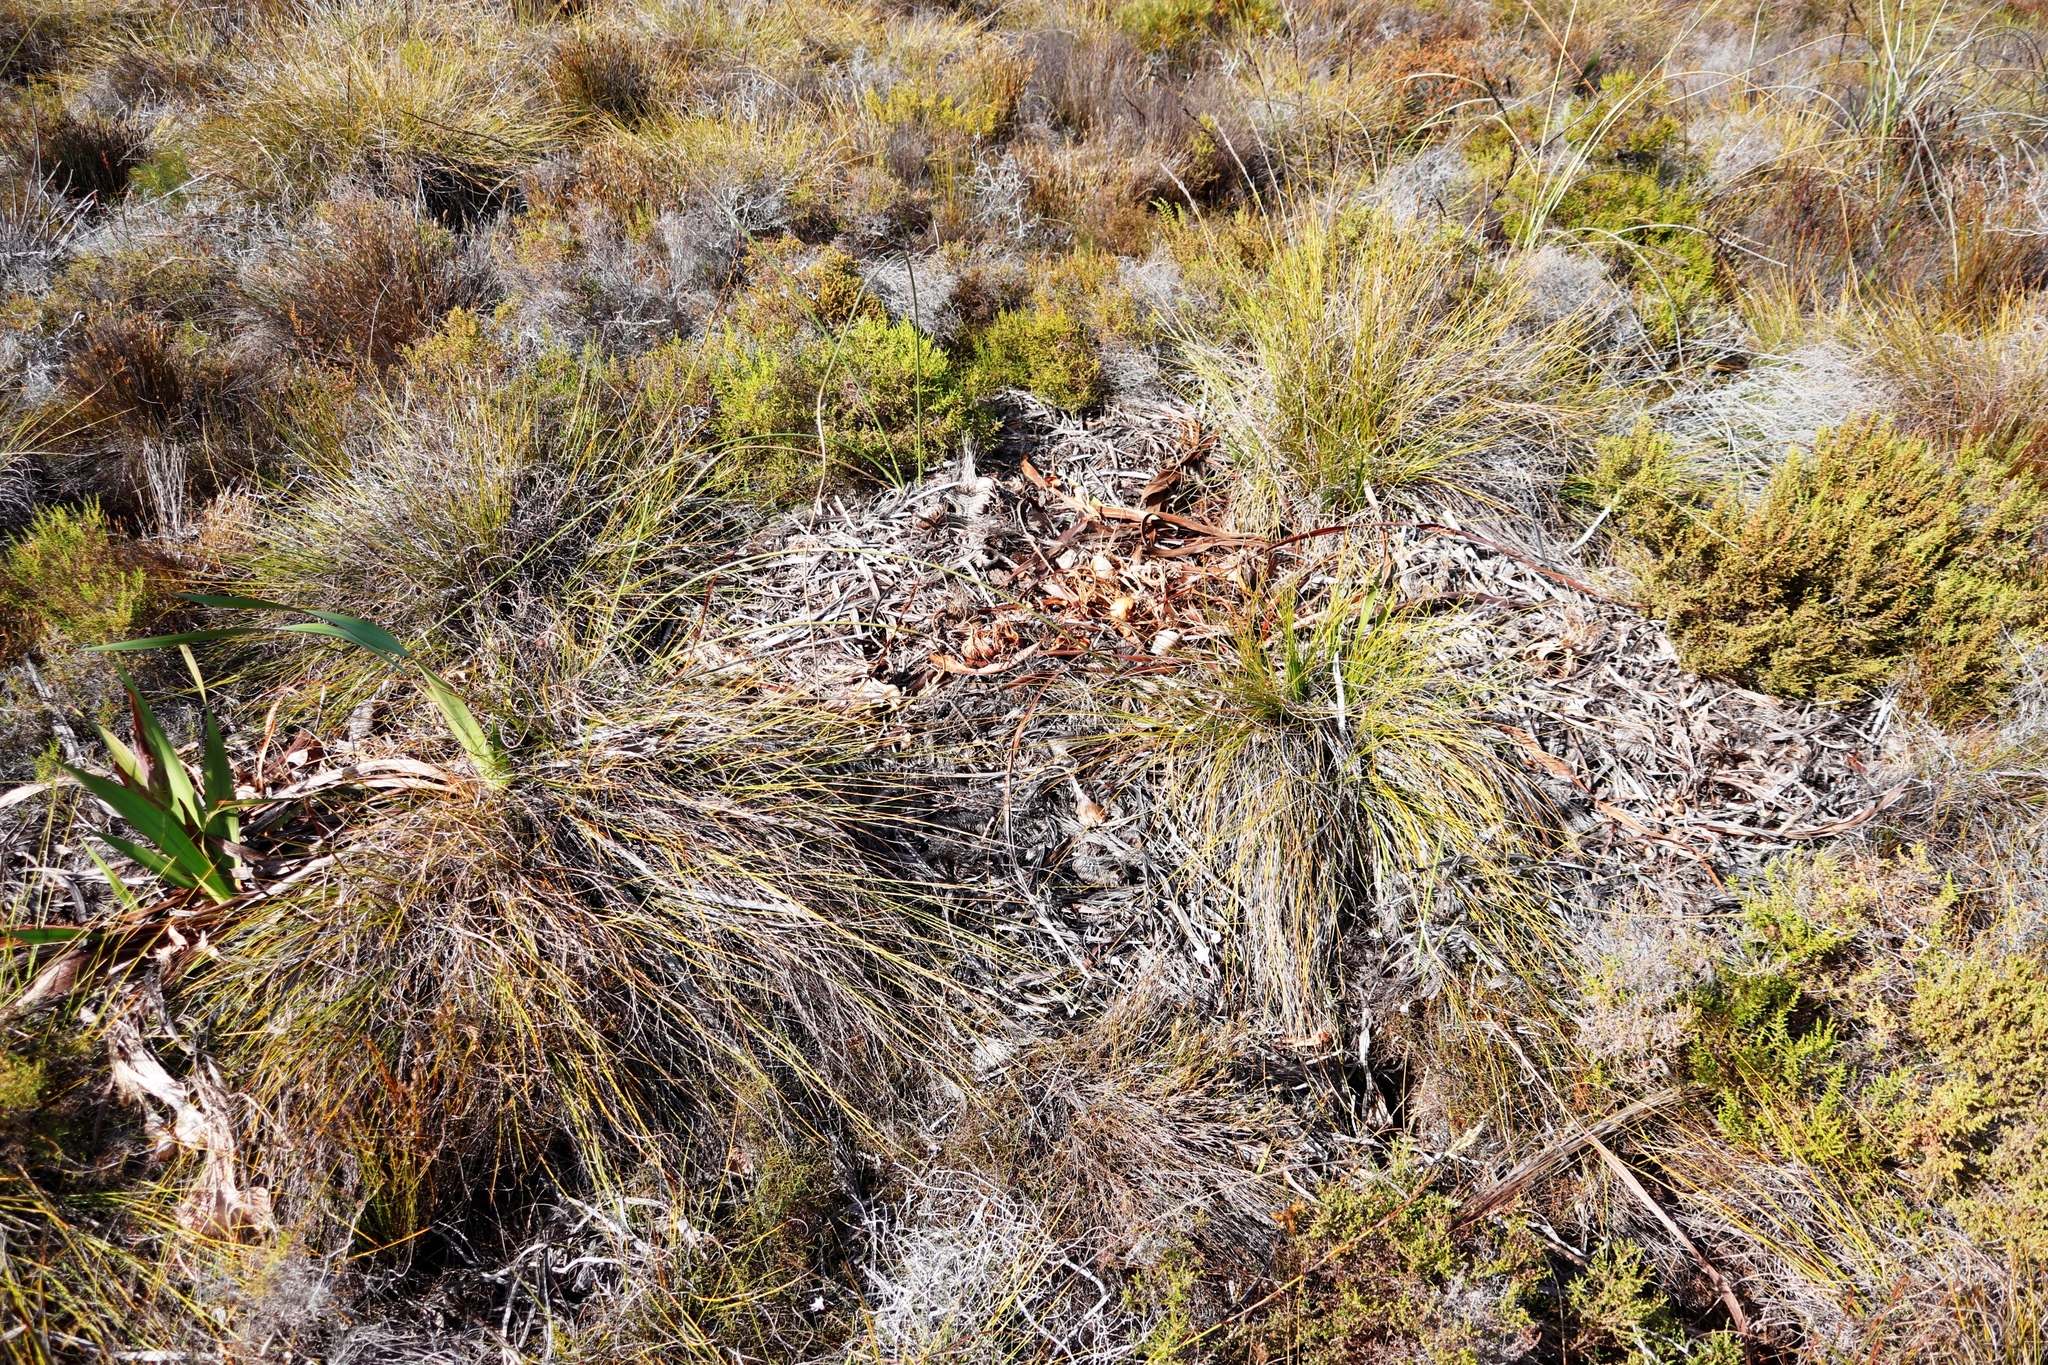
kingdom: Animalia
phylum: Chordata
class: Mammalia
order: Primates
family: Cercopithecidae
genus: Papio
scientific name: Papio ursinus
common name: Chacma baboon
